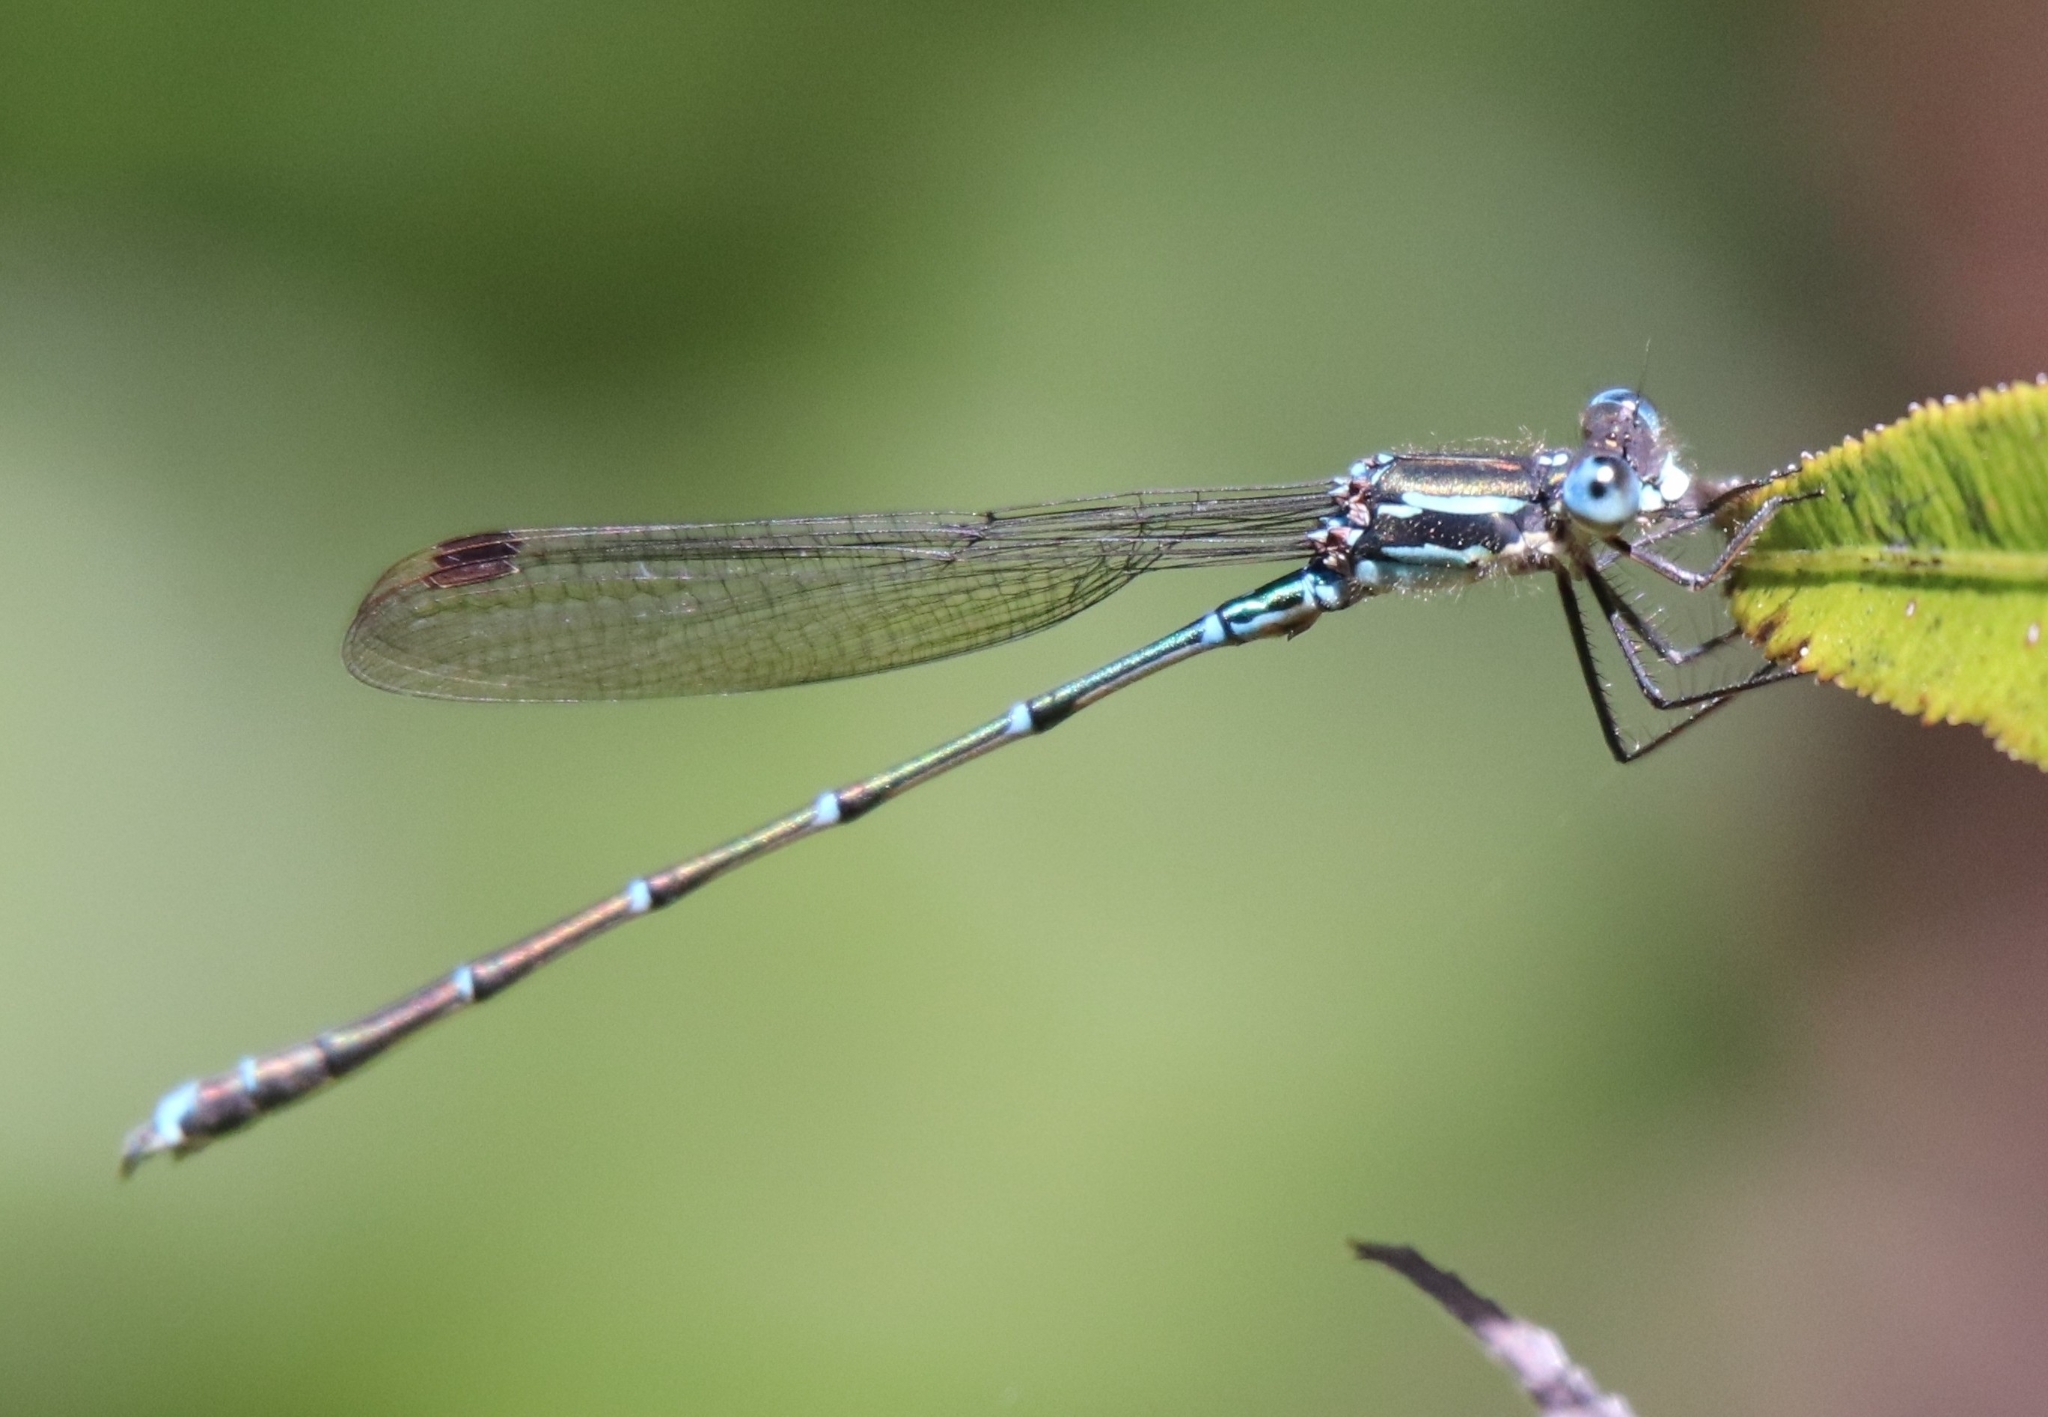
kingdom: Animalia
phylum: Arthropoda
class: Insecta
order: Odonata
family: Lestidae
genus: Austrolestes
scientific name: Austrolestes colensonis
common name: Blue damselfly
